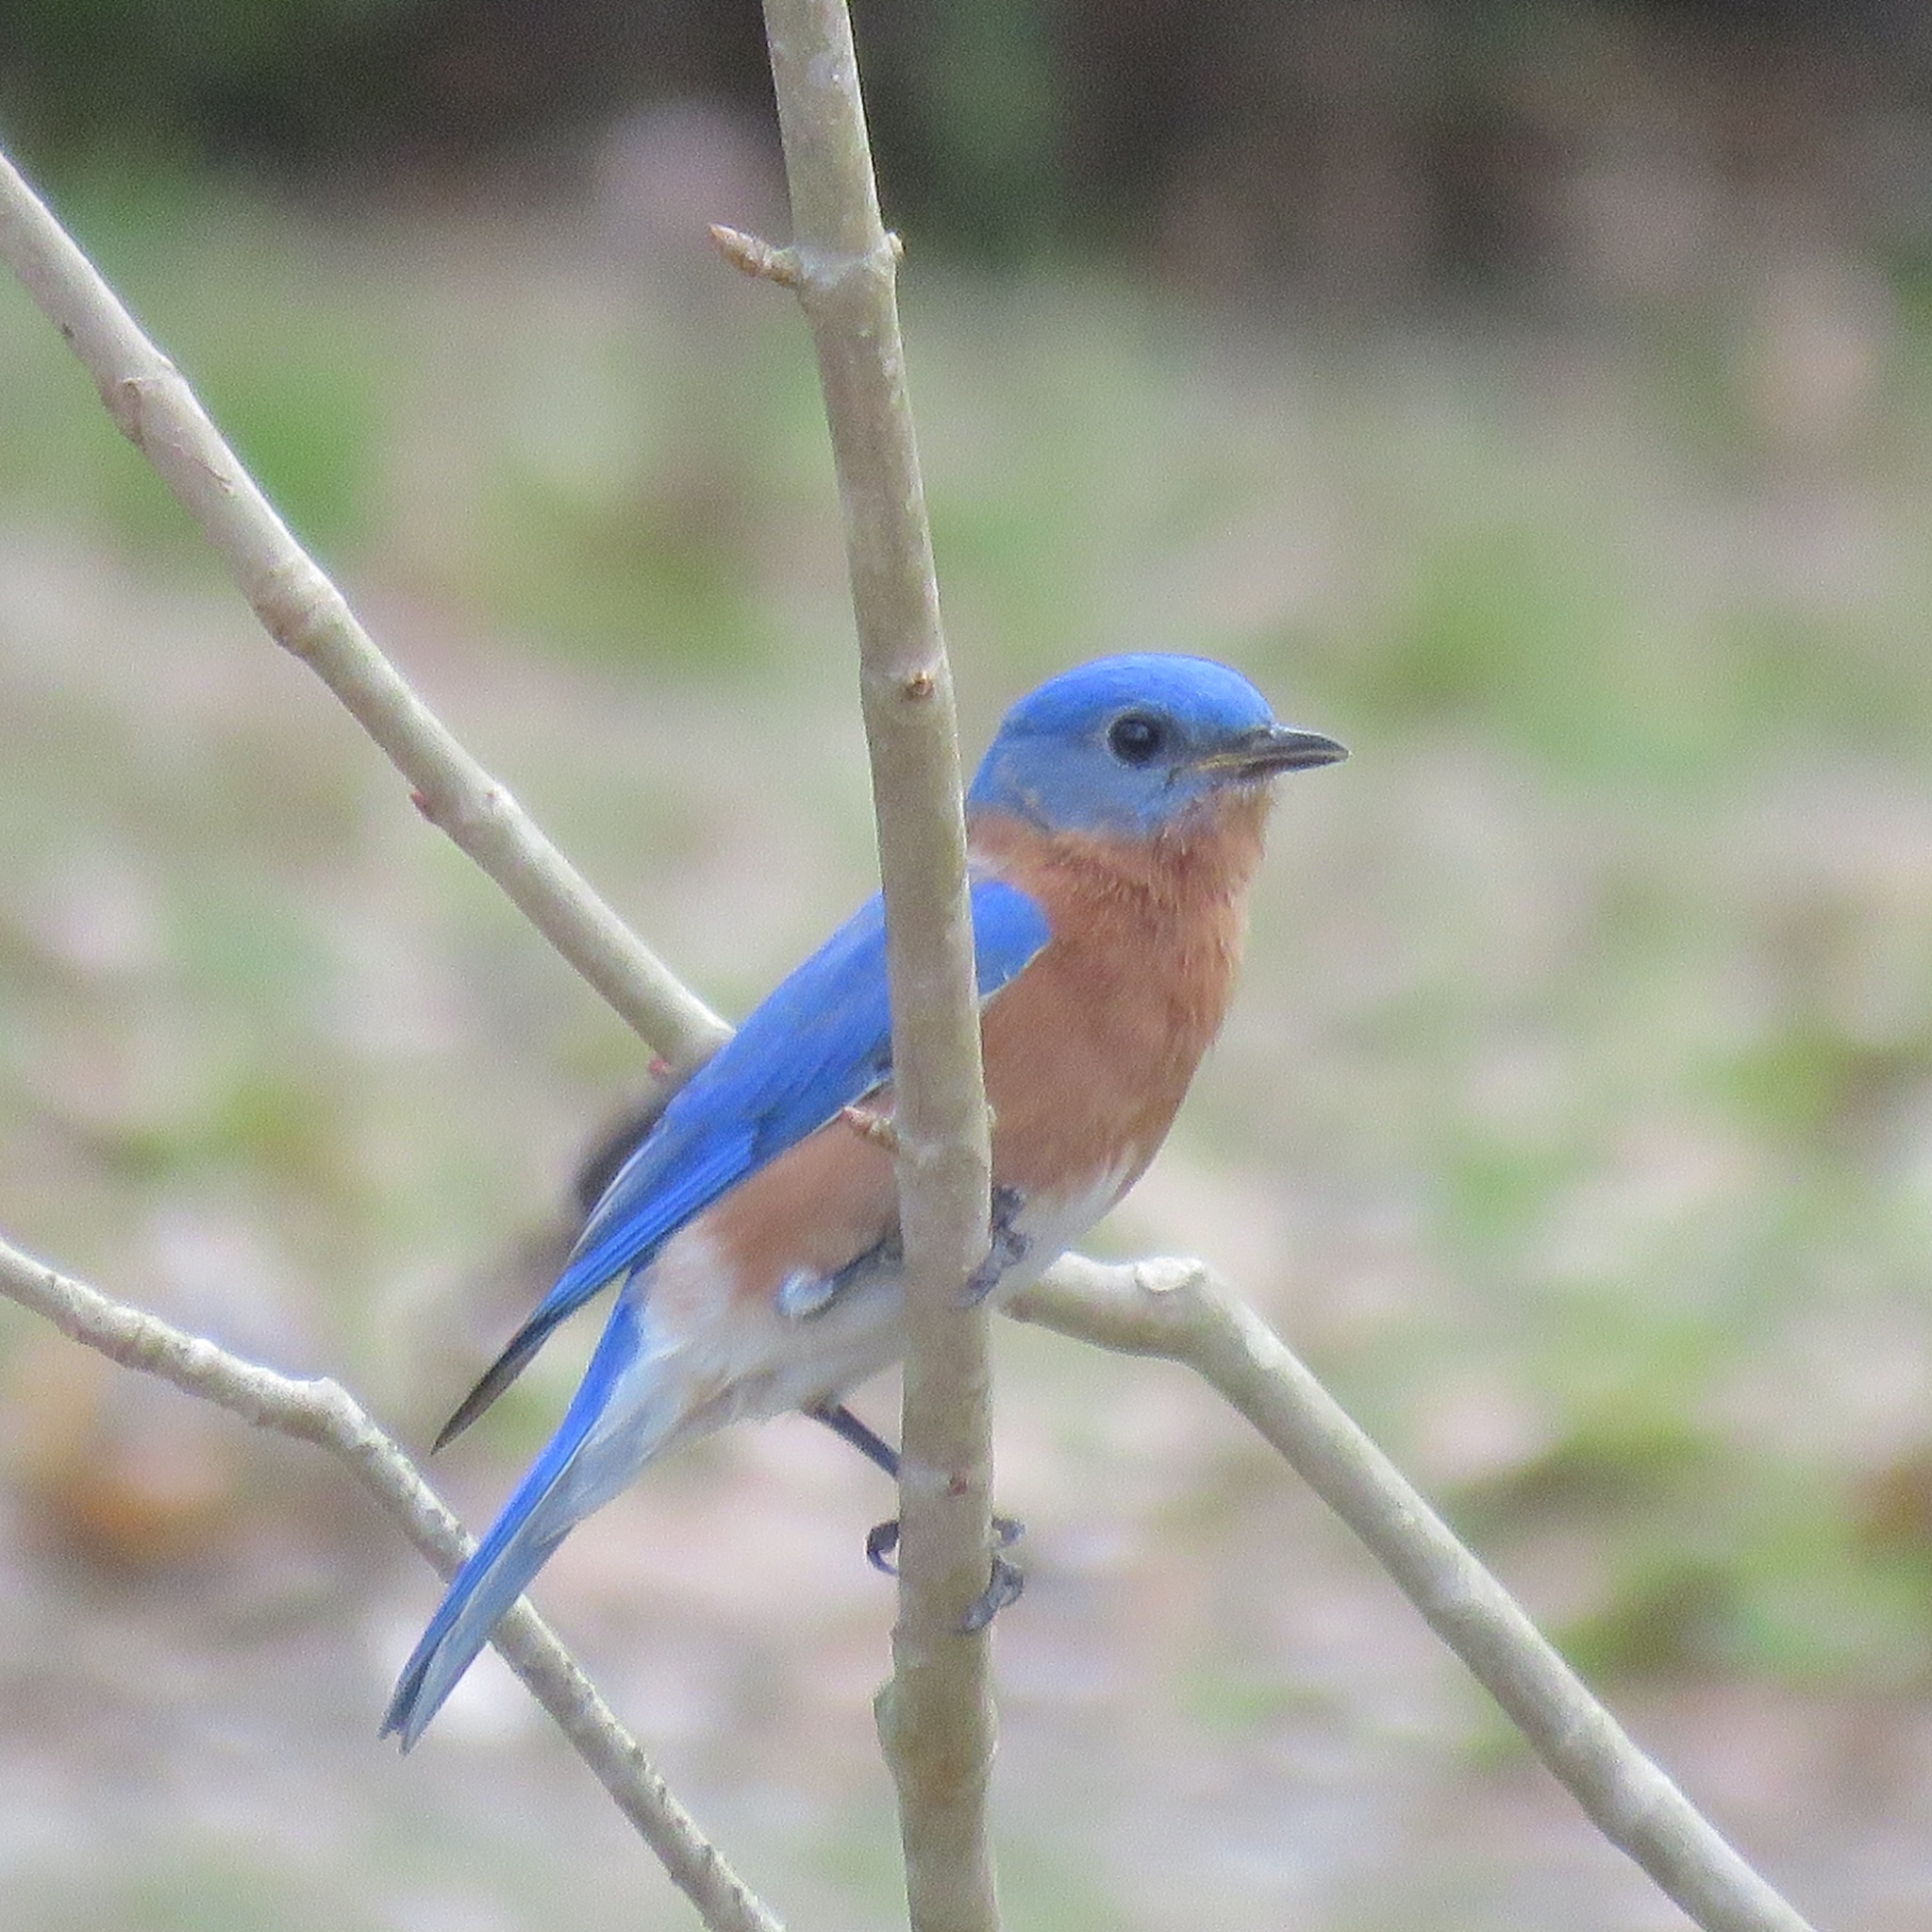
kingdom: Animalia
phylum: Chordata
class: Aves
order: Passeriformes
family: Turdidae
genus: Sialia
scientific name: Sialia sialis
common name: Eastern bluebird
